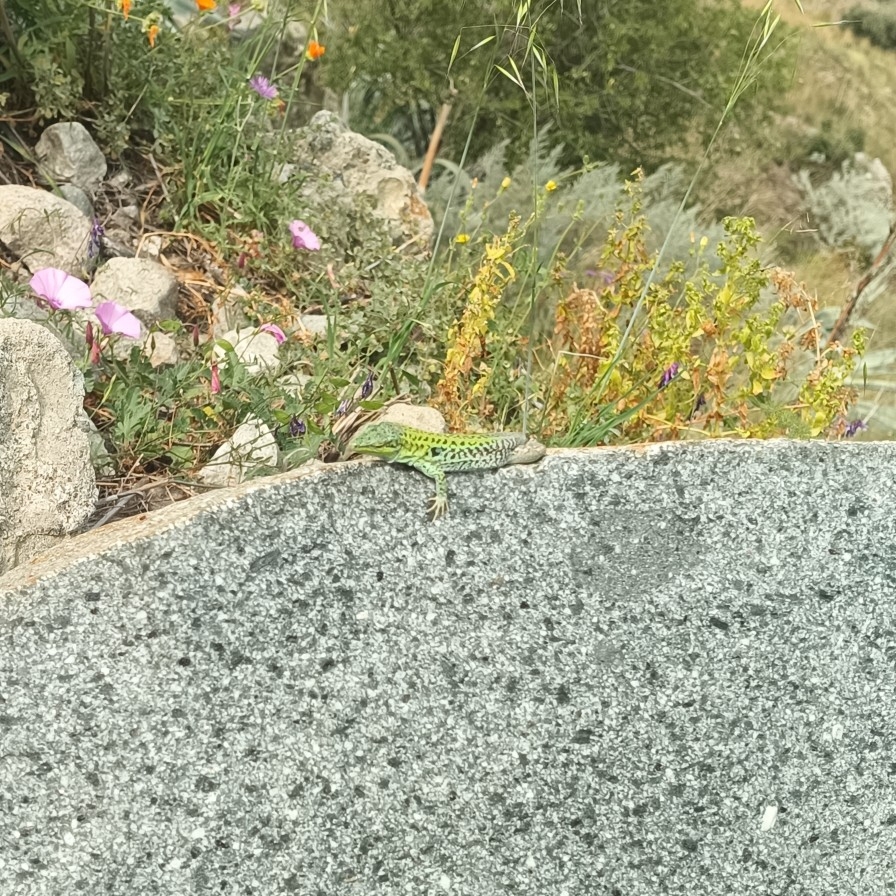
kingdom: Animalia
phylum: Chordata
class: Squamata
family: Lacertidae
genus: Podarcis
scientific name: Podarcis siculus
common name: Italian wall lizard
